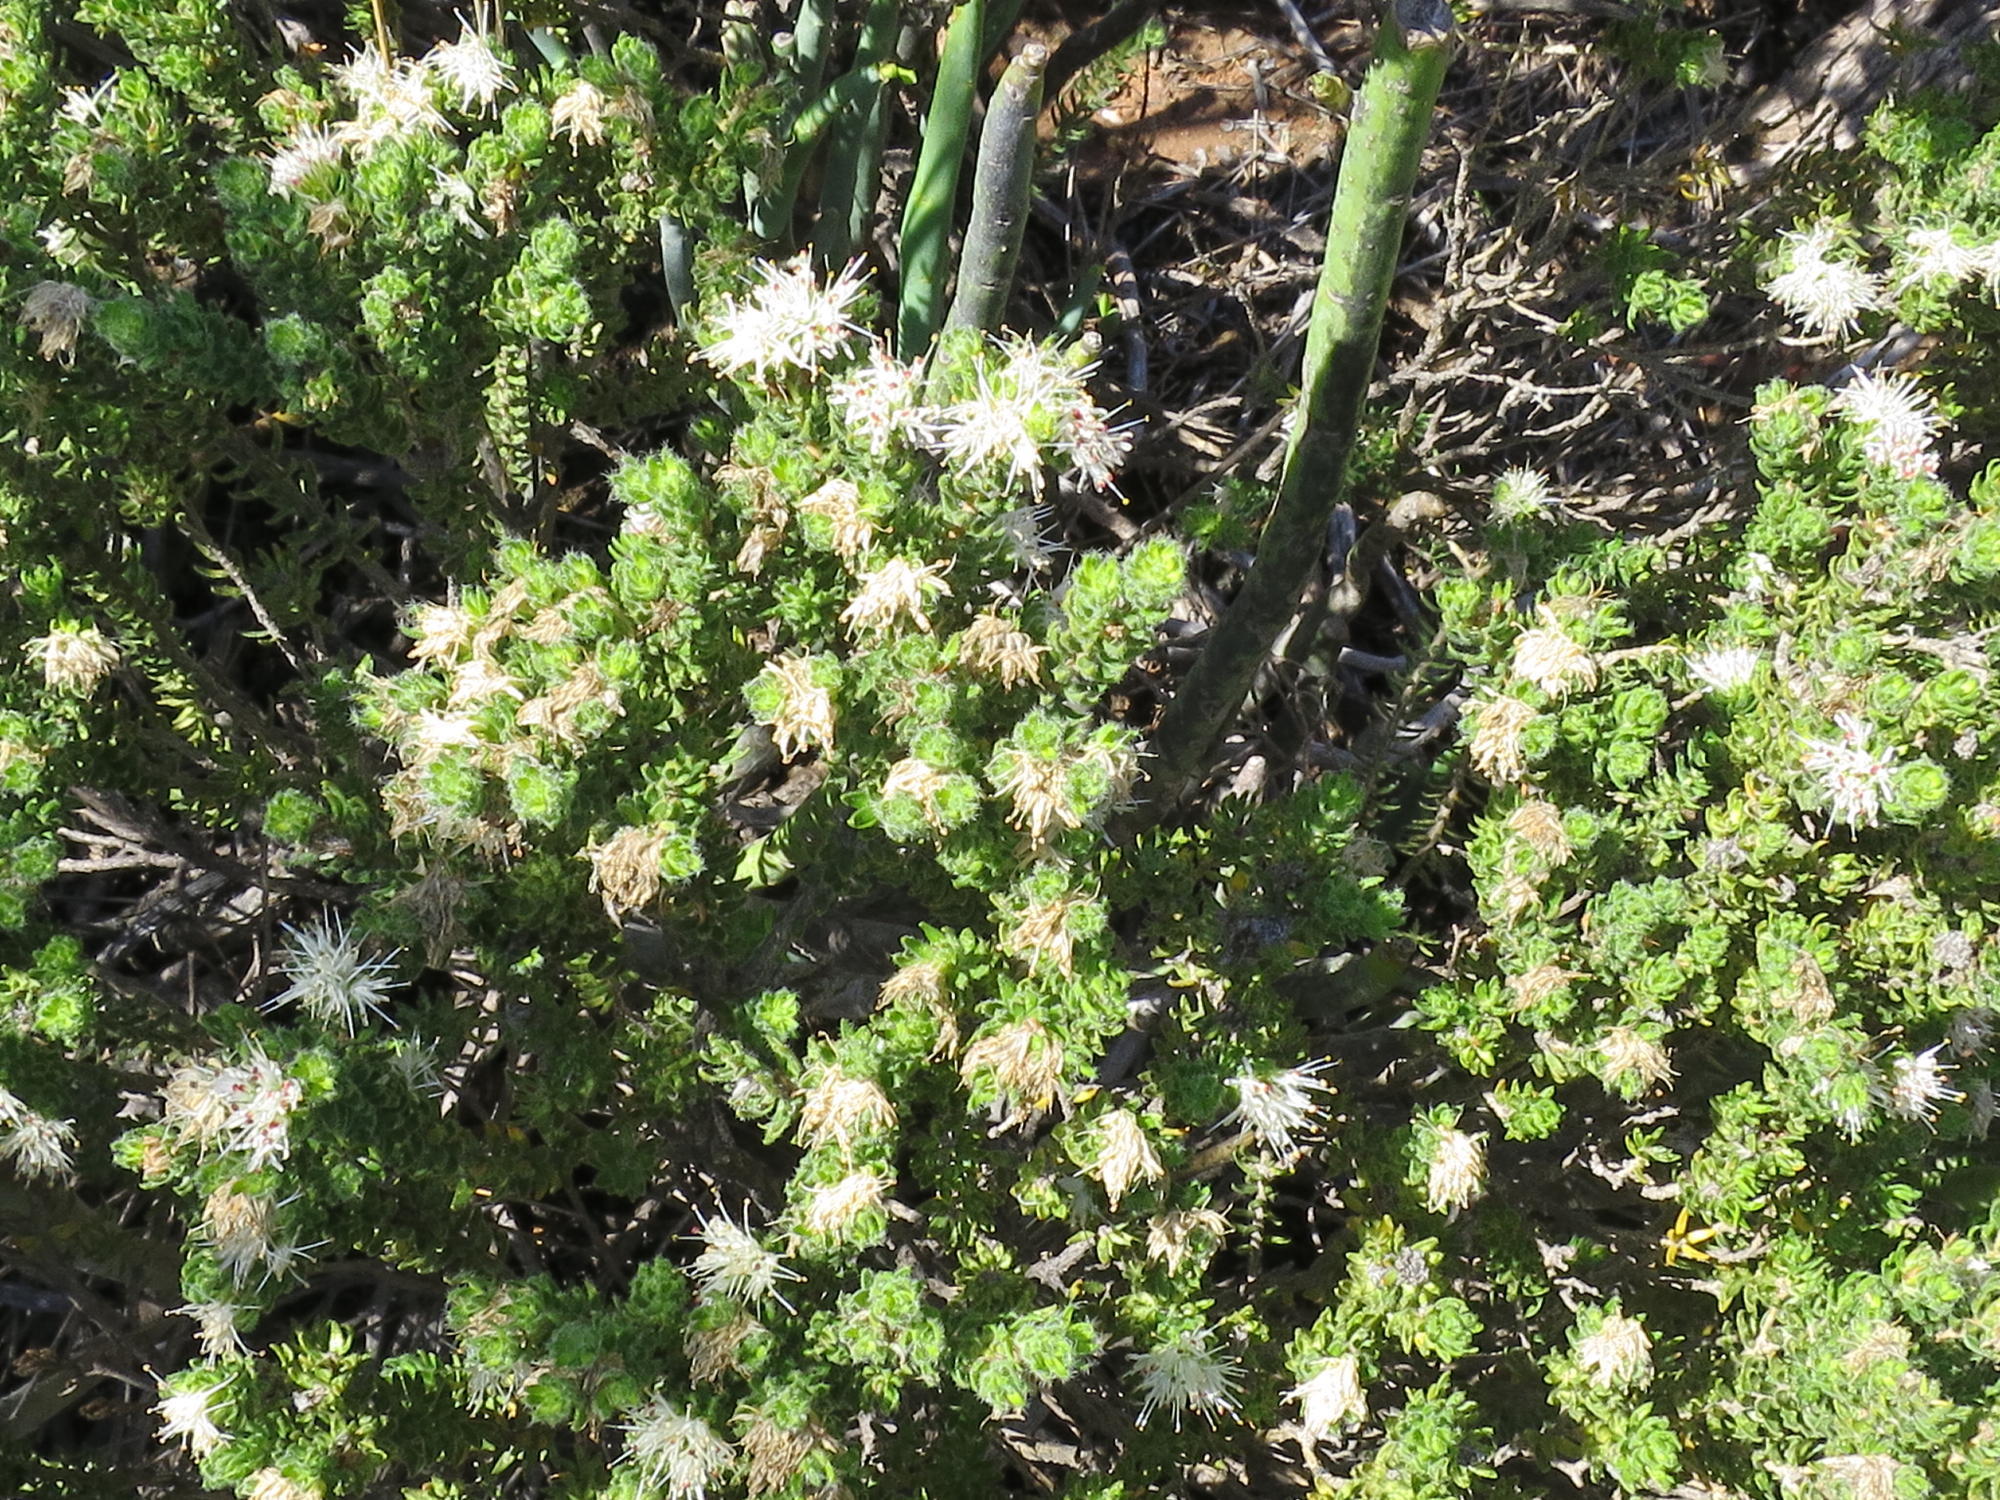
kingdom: Plantae
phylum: Tracheophyta
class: Magnoliopsida
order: Sapindales
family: Rutaceae
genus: Agathosma
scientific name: Agathosma
